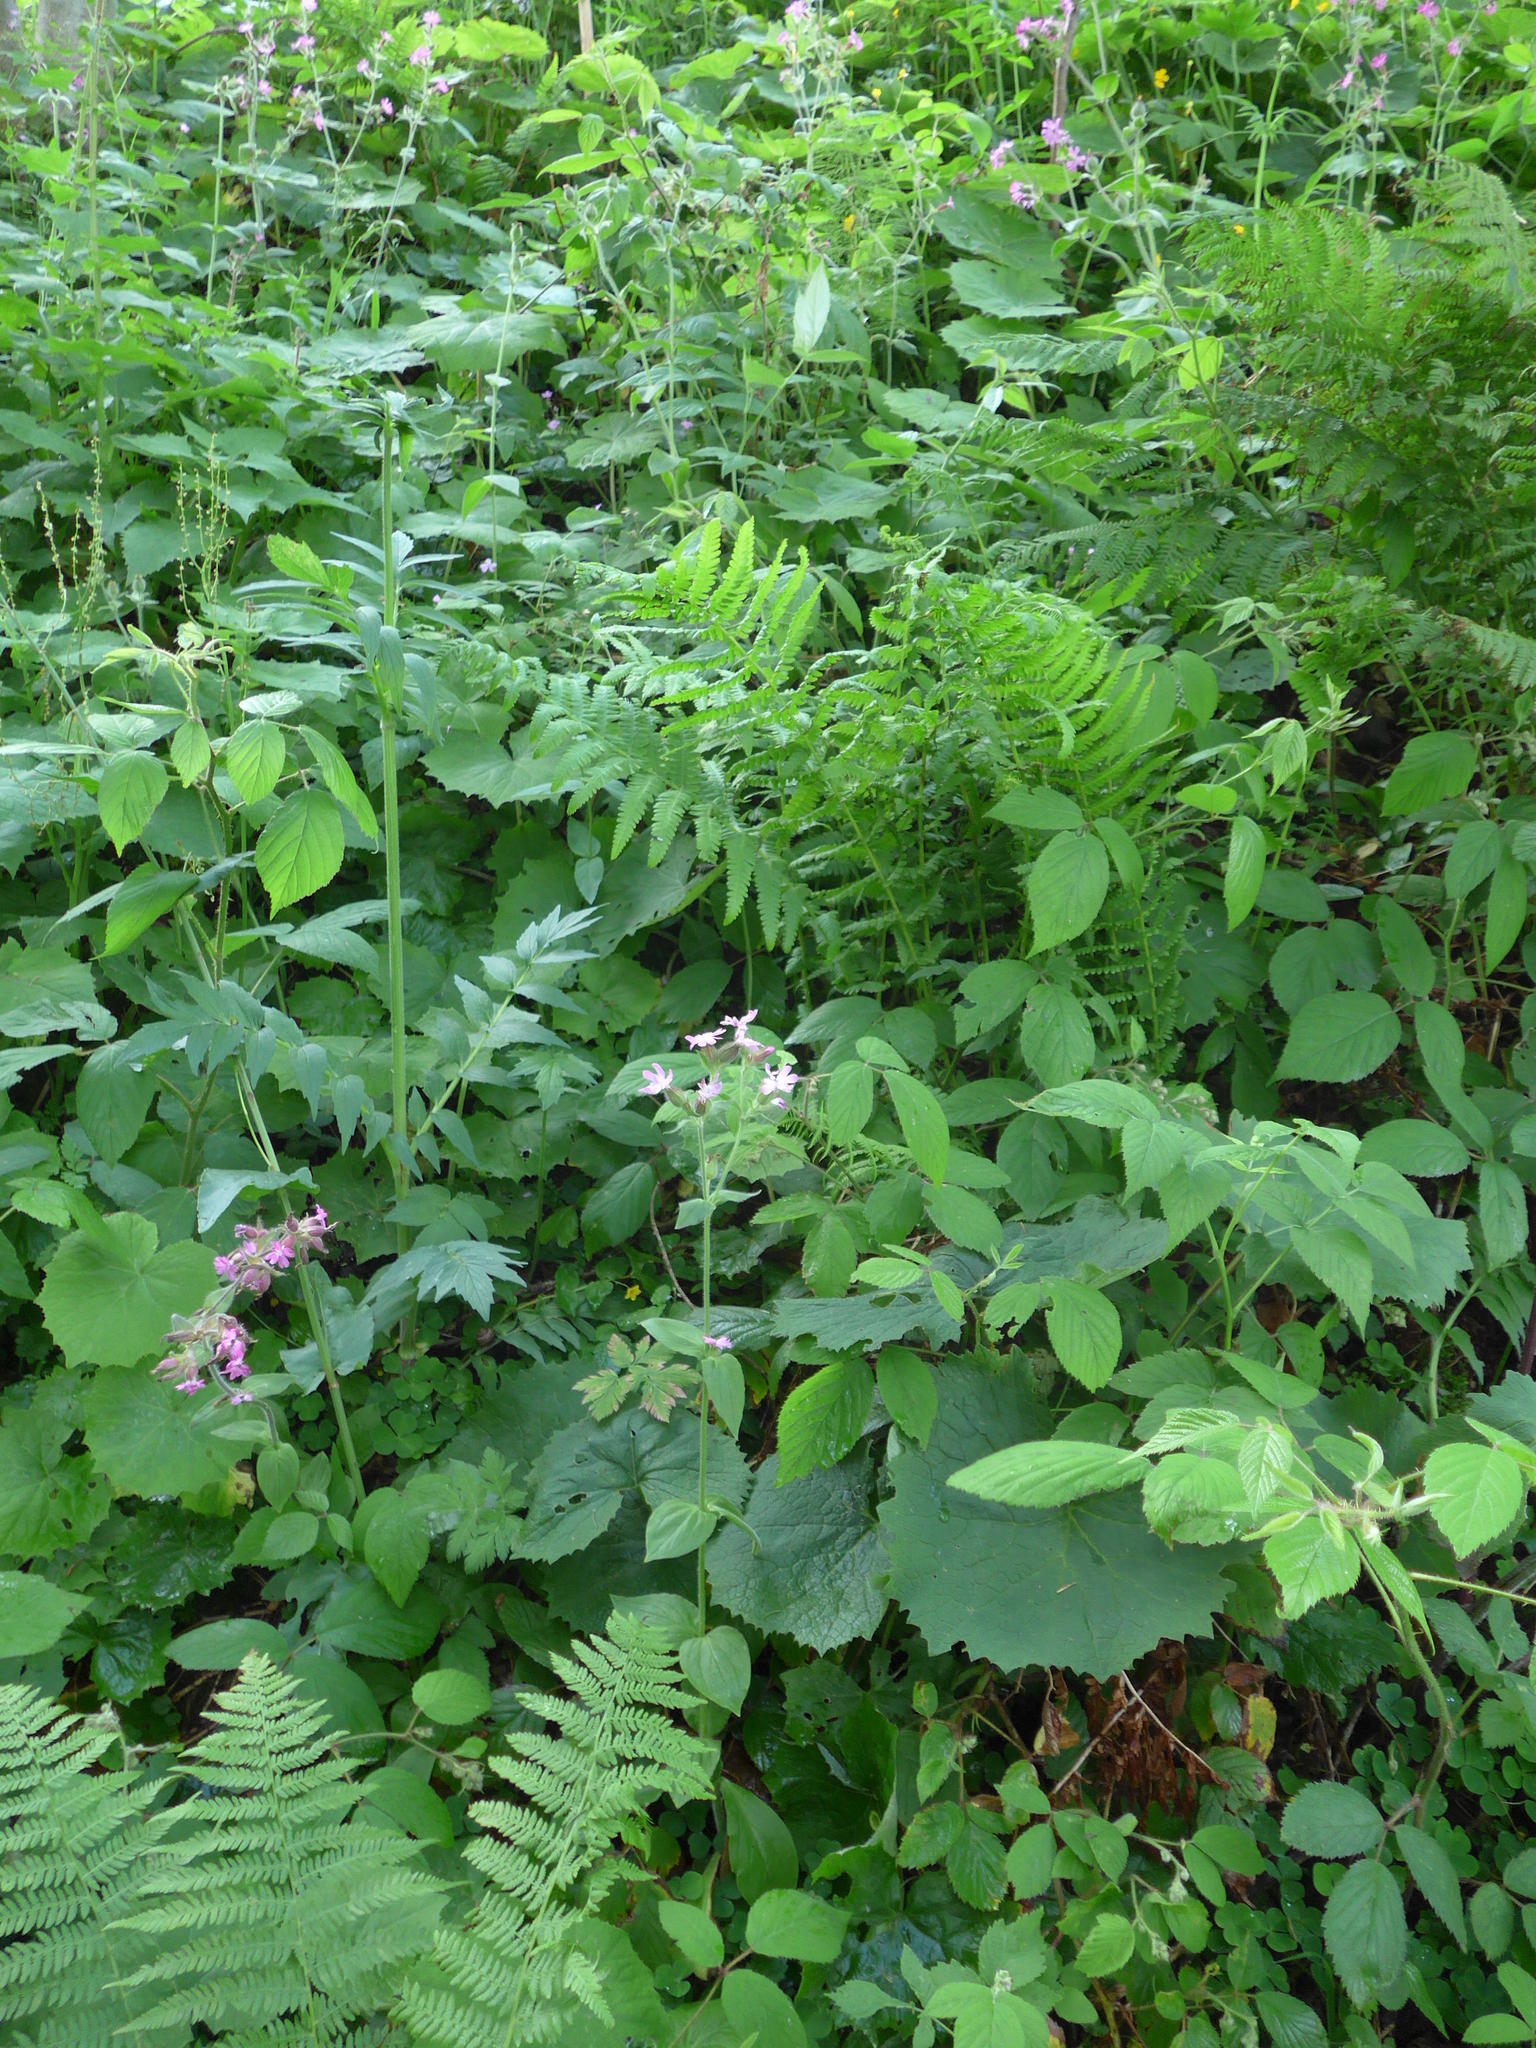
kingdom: Plantae
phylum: Tracheophyta
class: Magnoliopsida
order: Caryophyllales
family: Caryophyllaceae
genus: Silene
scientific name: Silene dioica
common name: Red campion
